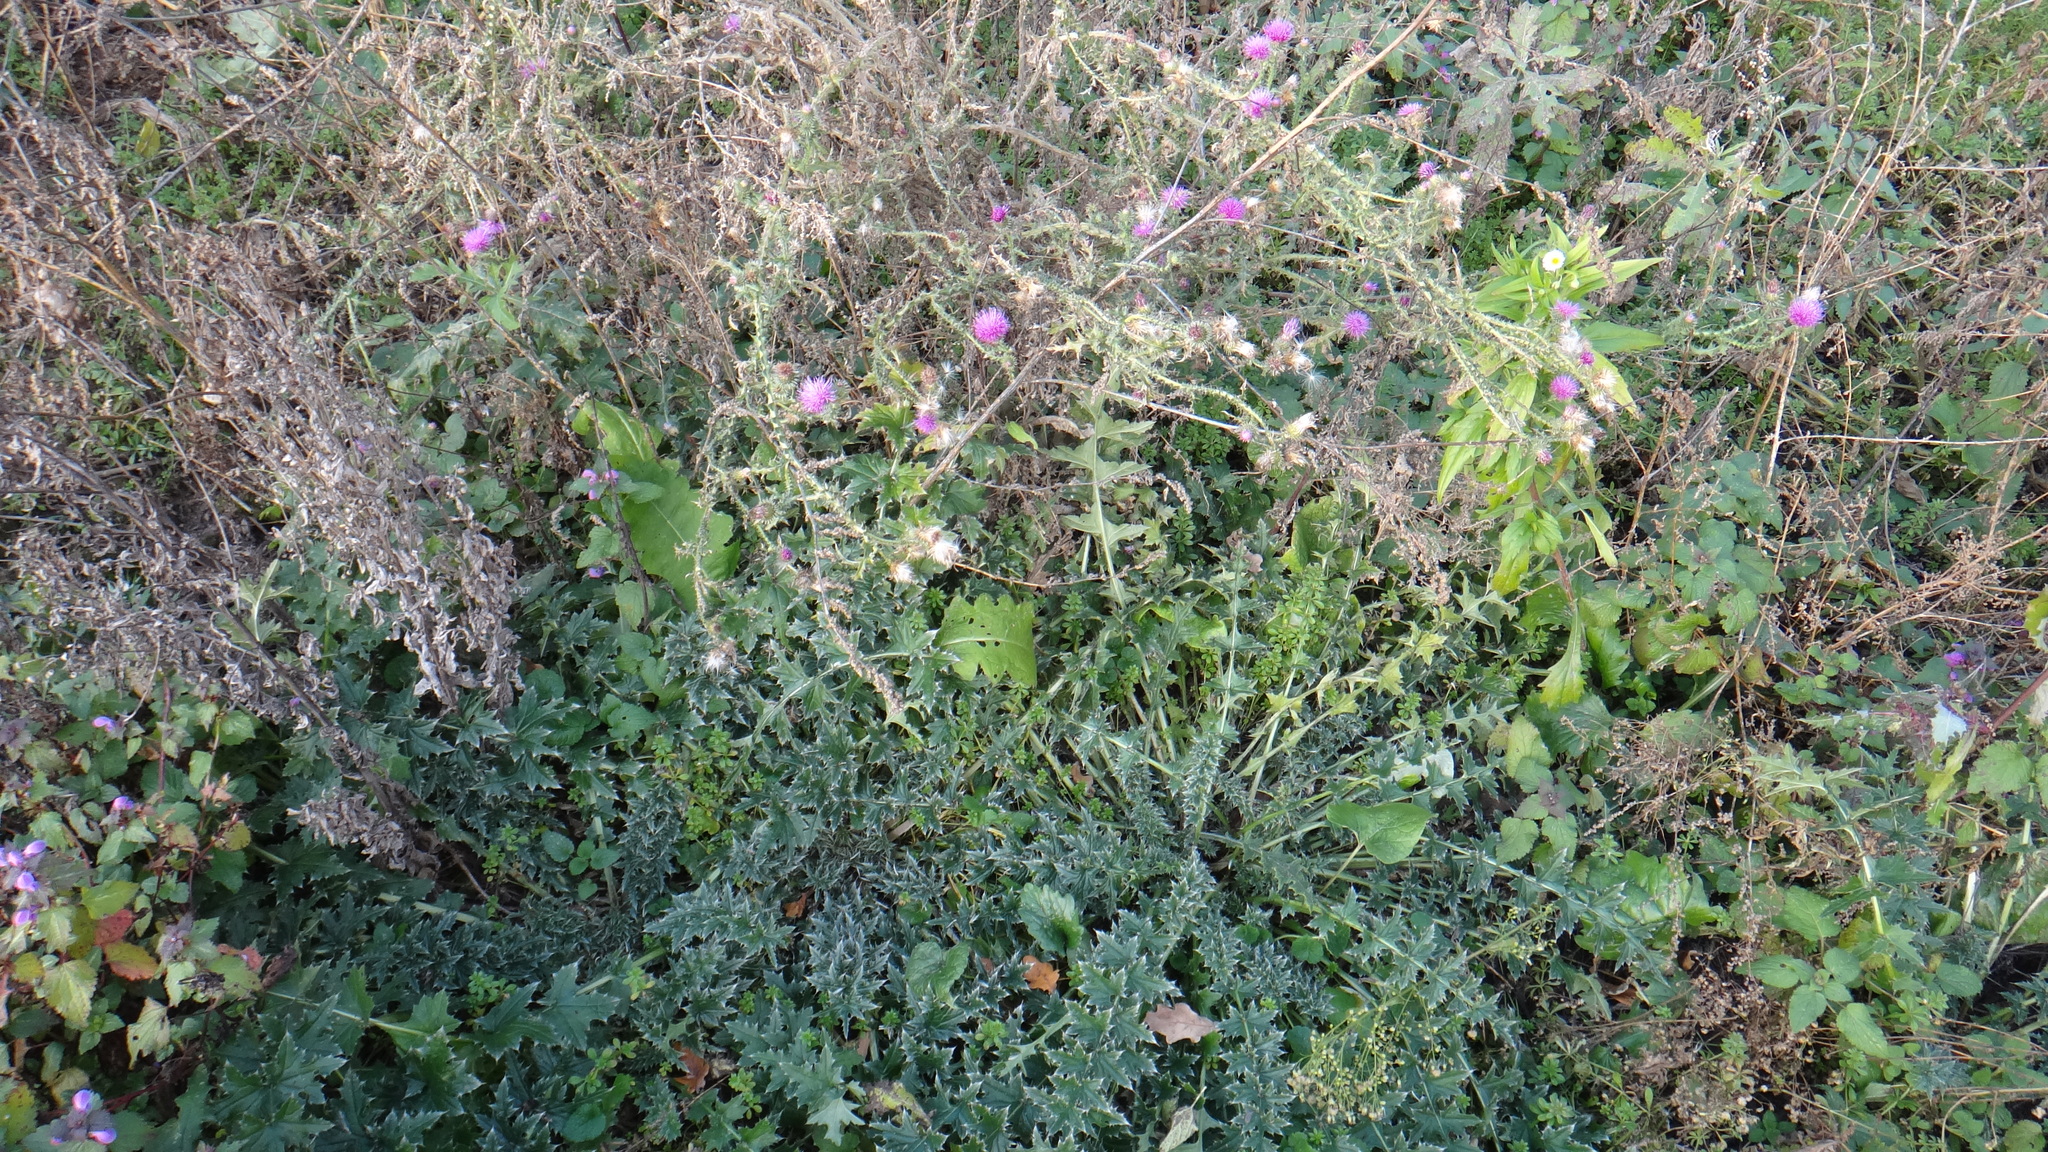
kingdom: Plantae
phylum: Tracheophyta
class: Magnoliopsida
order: Asterales
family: Asteraceae
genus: Carduus
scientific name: Carduus acanthoides
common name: Plumeless thistle
